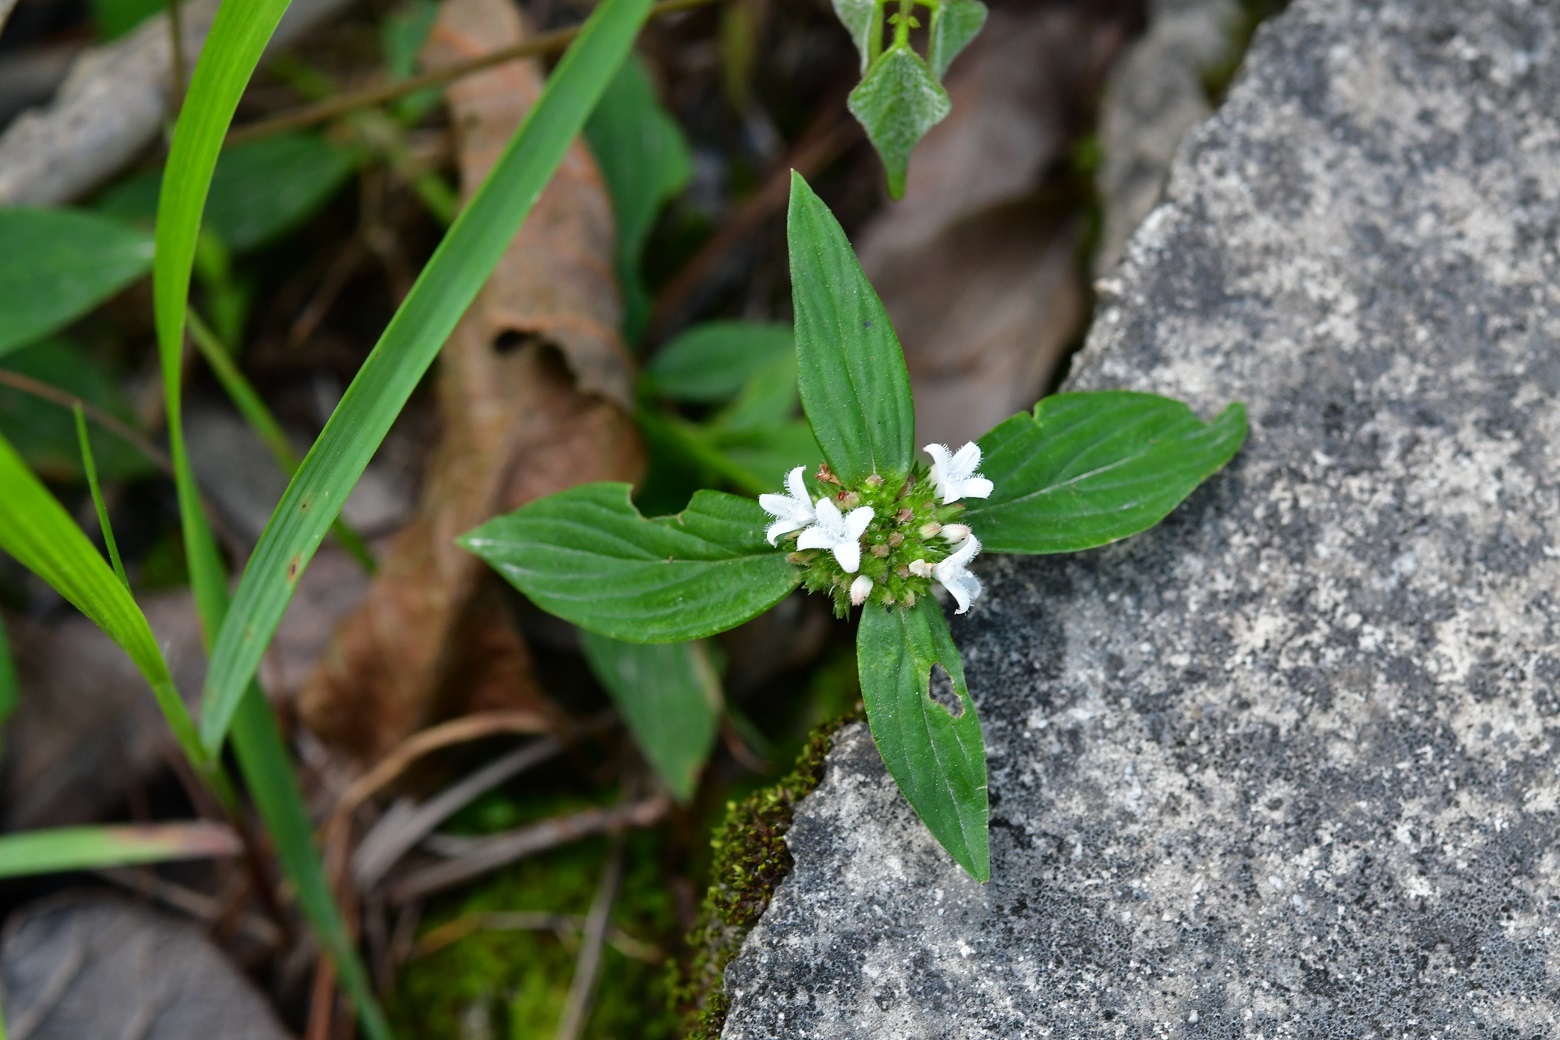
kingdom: Plantae
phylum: Tracheophyta
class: Magnoliopsida
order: Gentianales
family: Rubiaceae
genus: Spermacoce
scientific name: Spermacoce remota
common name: Woodland false buttonweed
